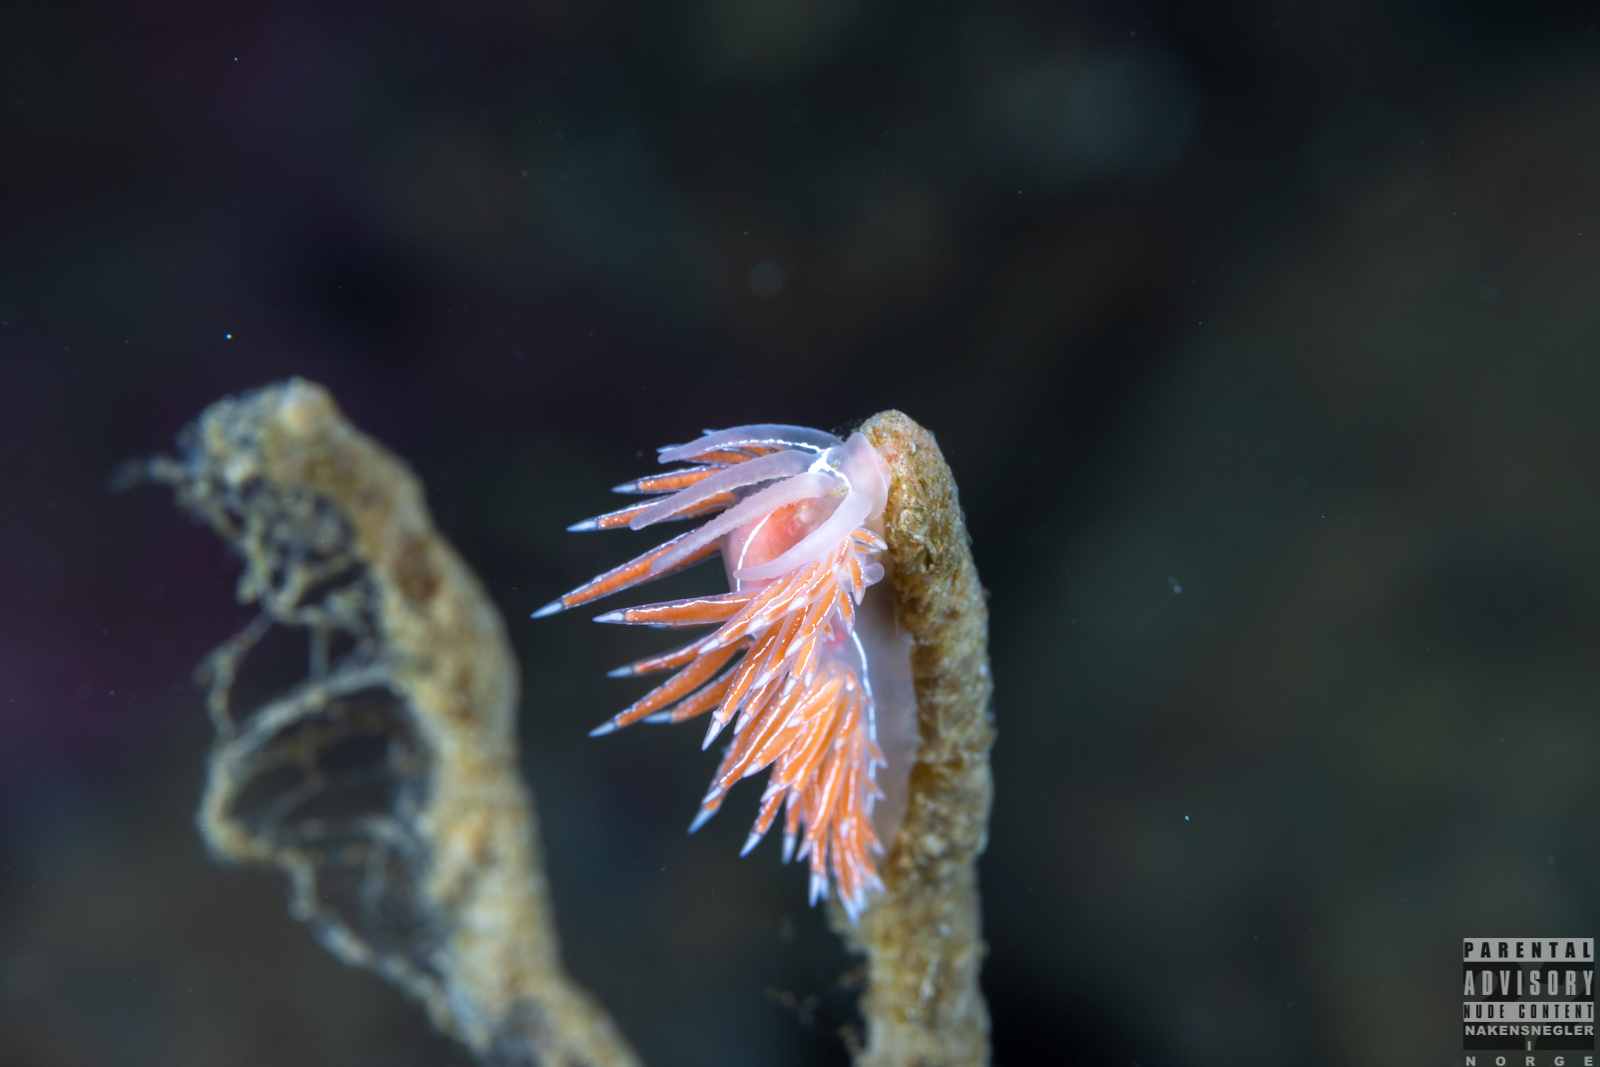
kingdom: Animalia
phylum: Mollusca
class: Gastropoda
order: Nudibranchia
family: Coryphellidae
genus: Coryphella
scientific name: Coryphella chriskaugei
